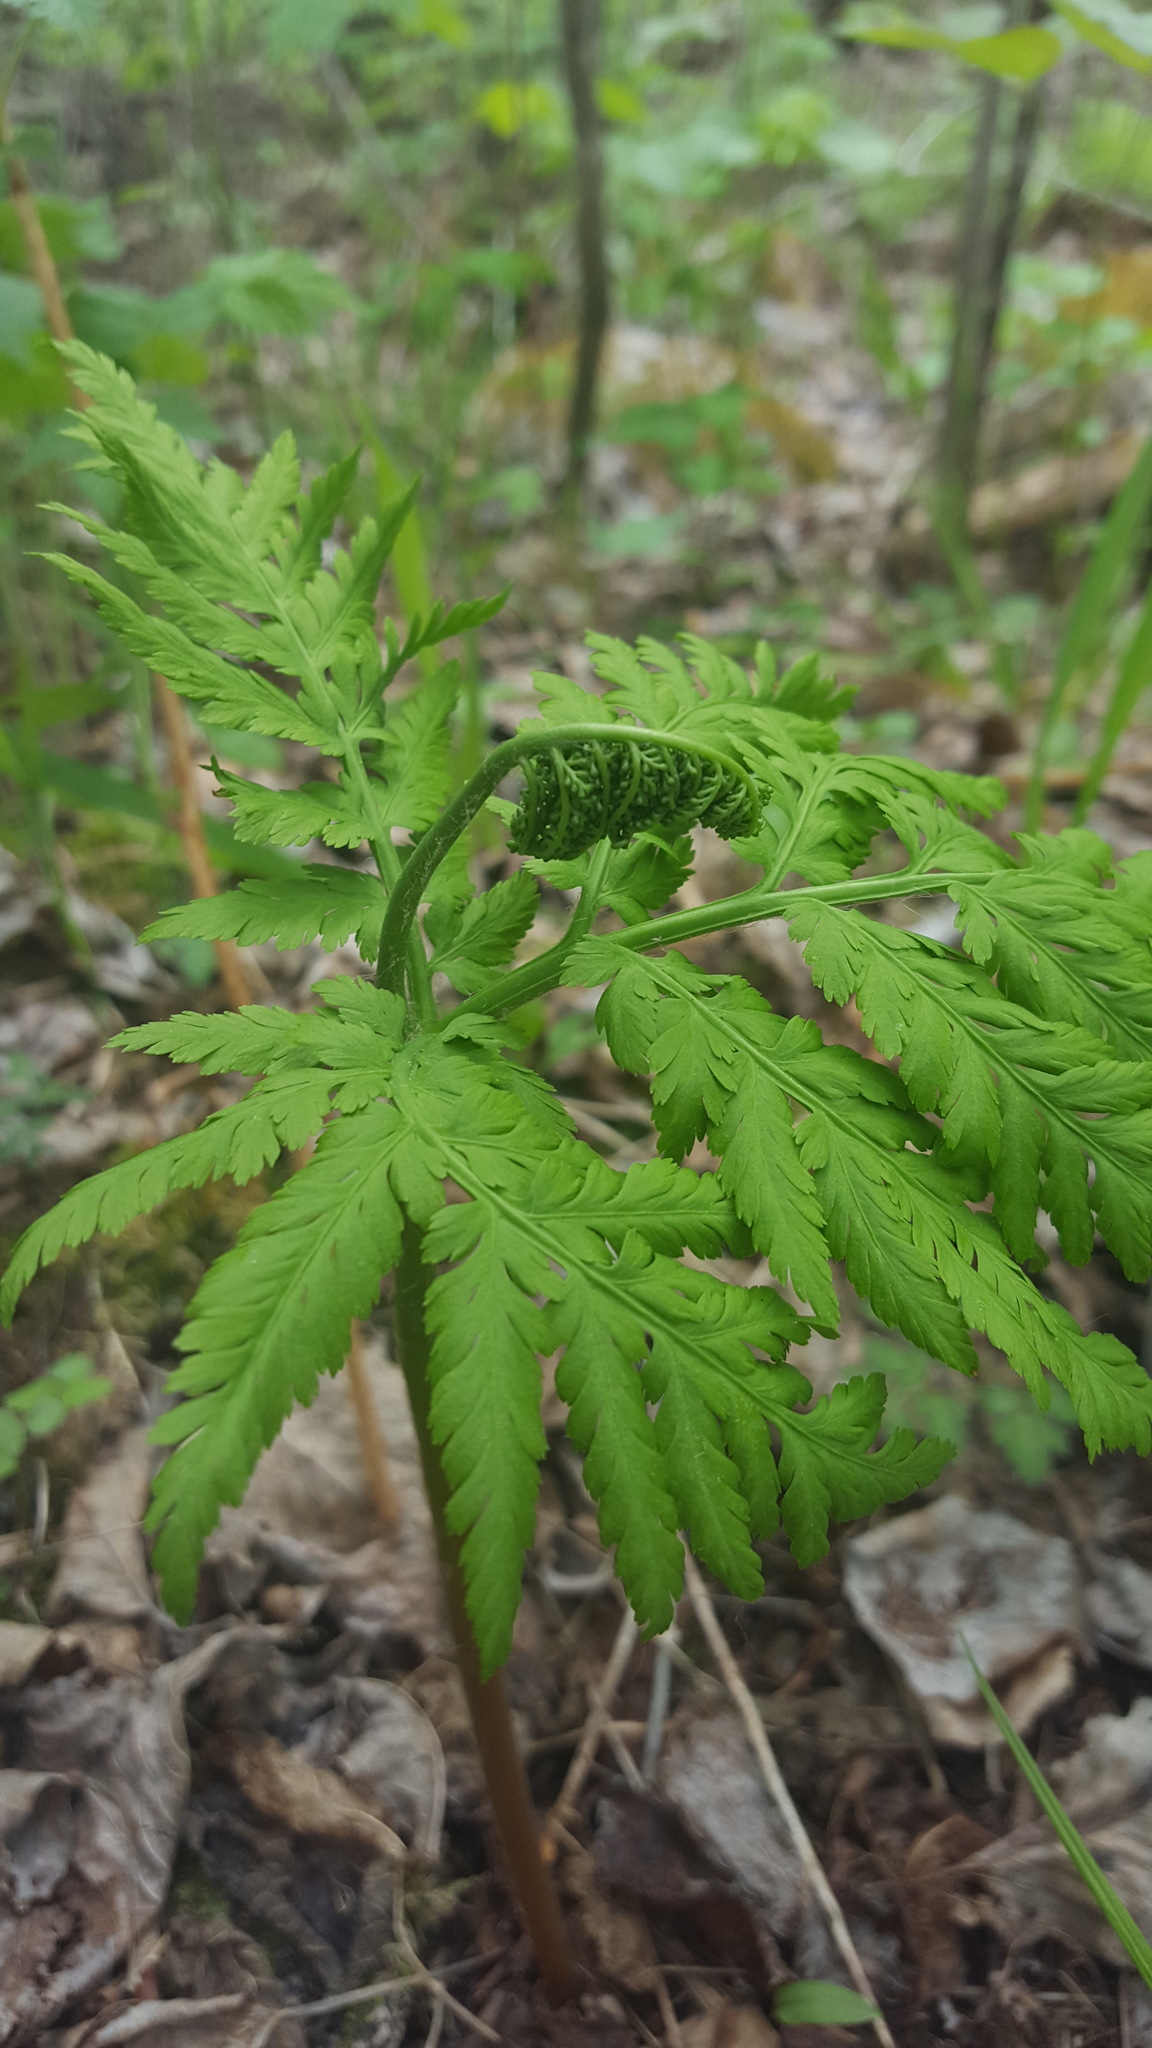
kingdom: Plantae
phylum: Tracheophyta
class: Polypodiopsida
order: Ophioglossales
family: Ophioglossaceae
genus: Botrypus
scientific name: Botrypus virginianus
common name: Common grapefern
